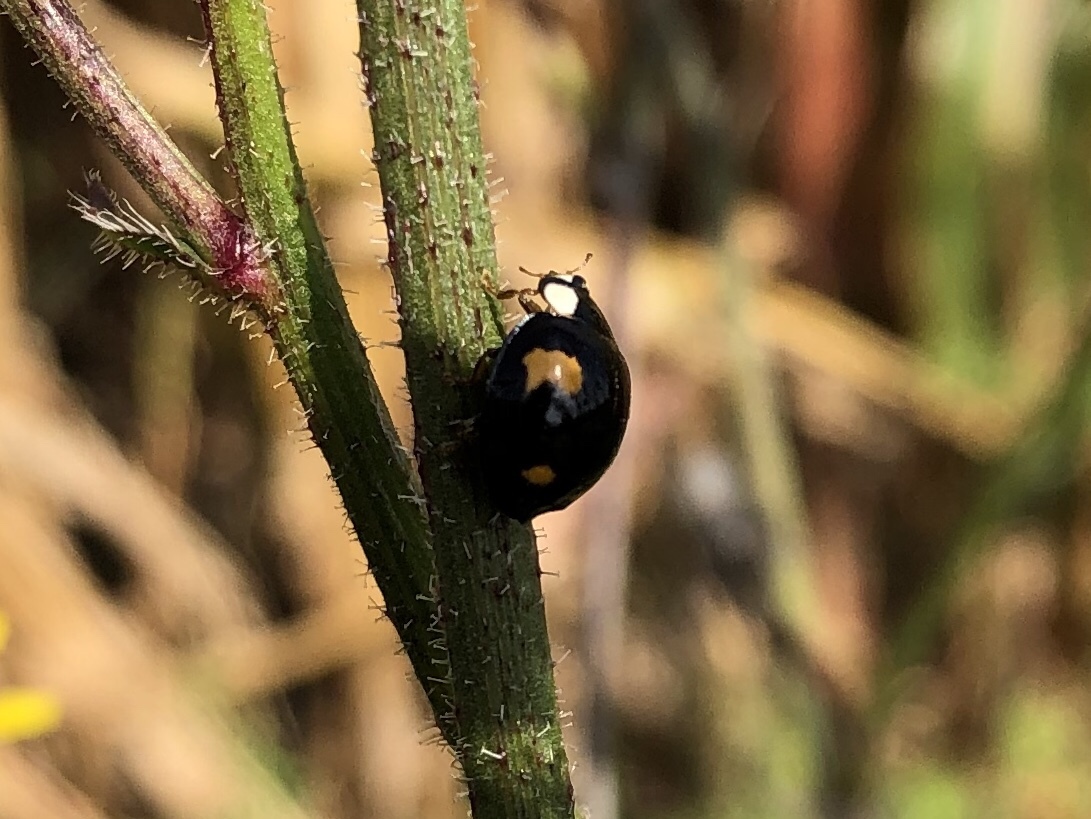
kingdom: Animalia
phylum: Arthropoda
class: Insecta
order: Coleoptera
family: Coccinellidae
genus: Harmonia
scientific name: Harmonia axyridis
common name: Harlequin ladybird
